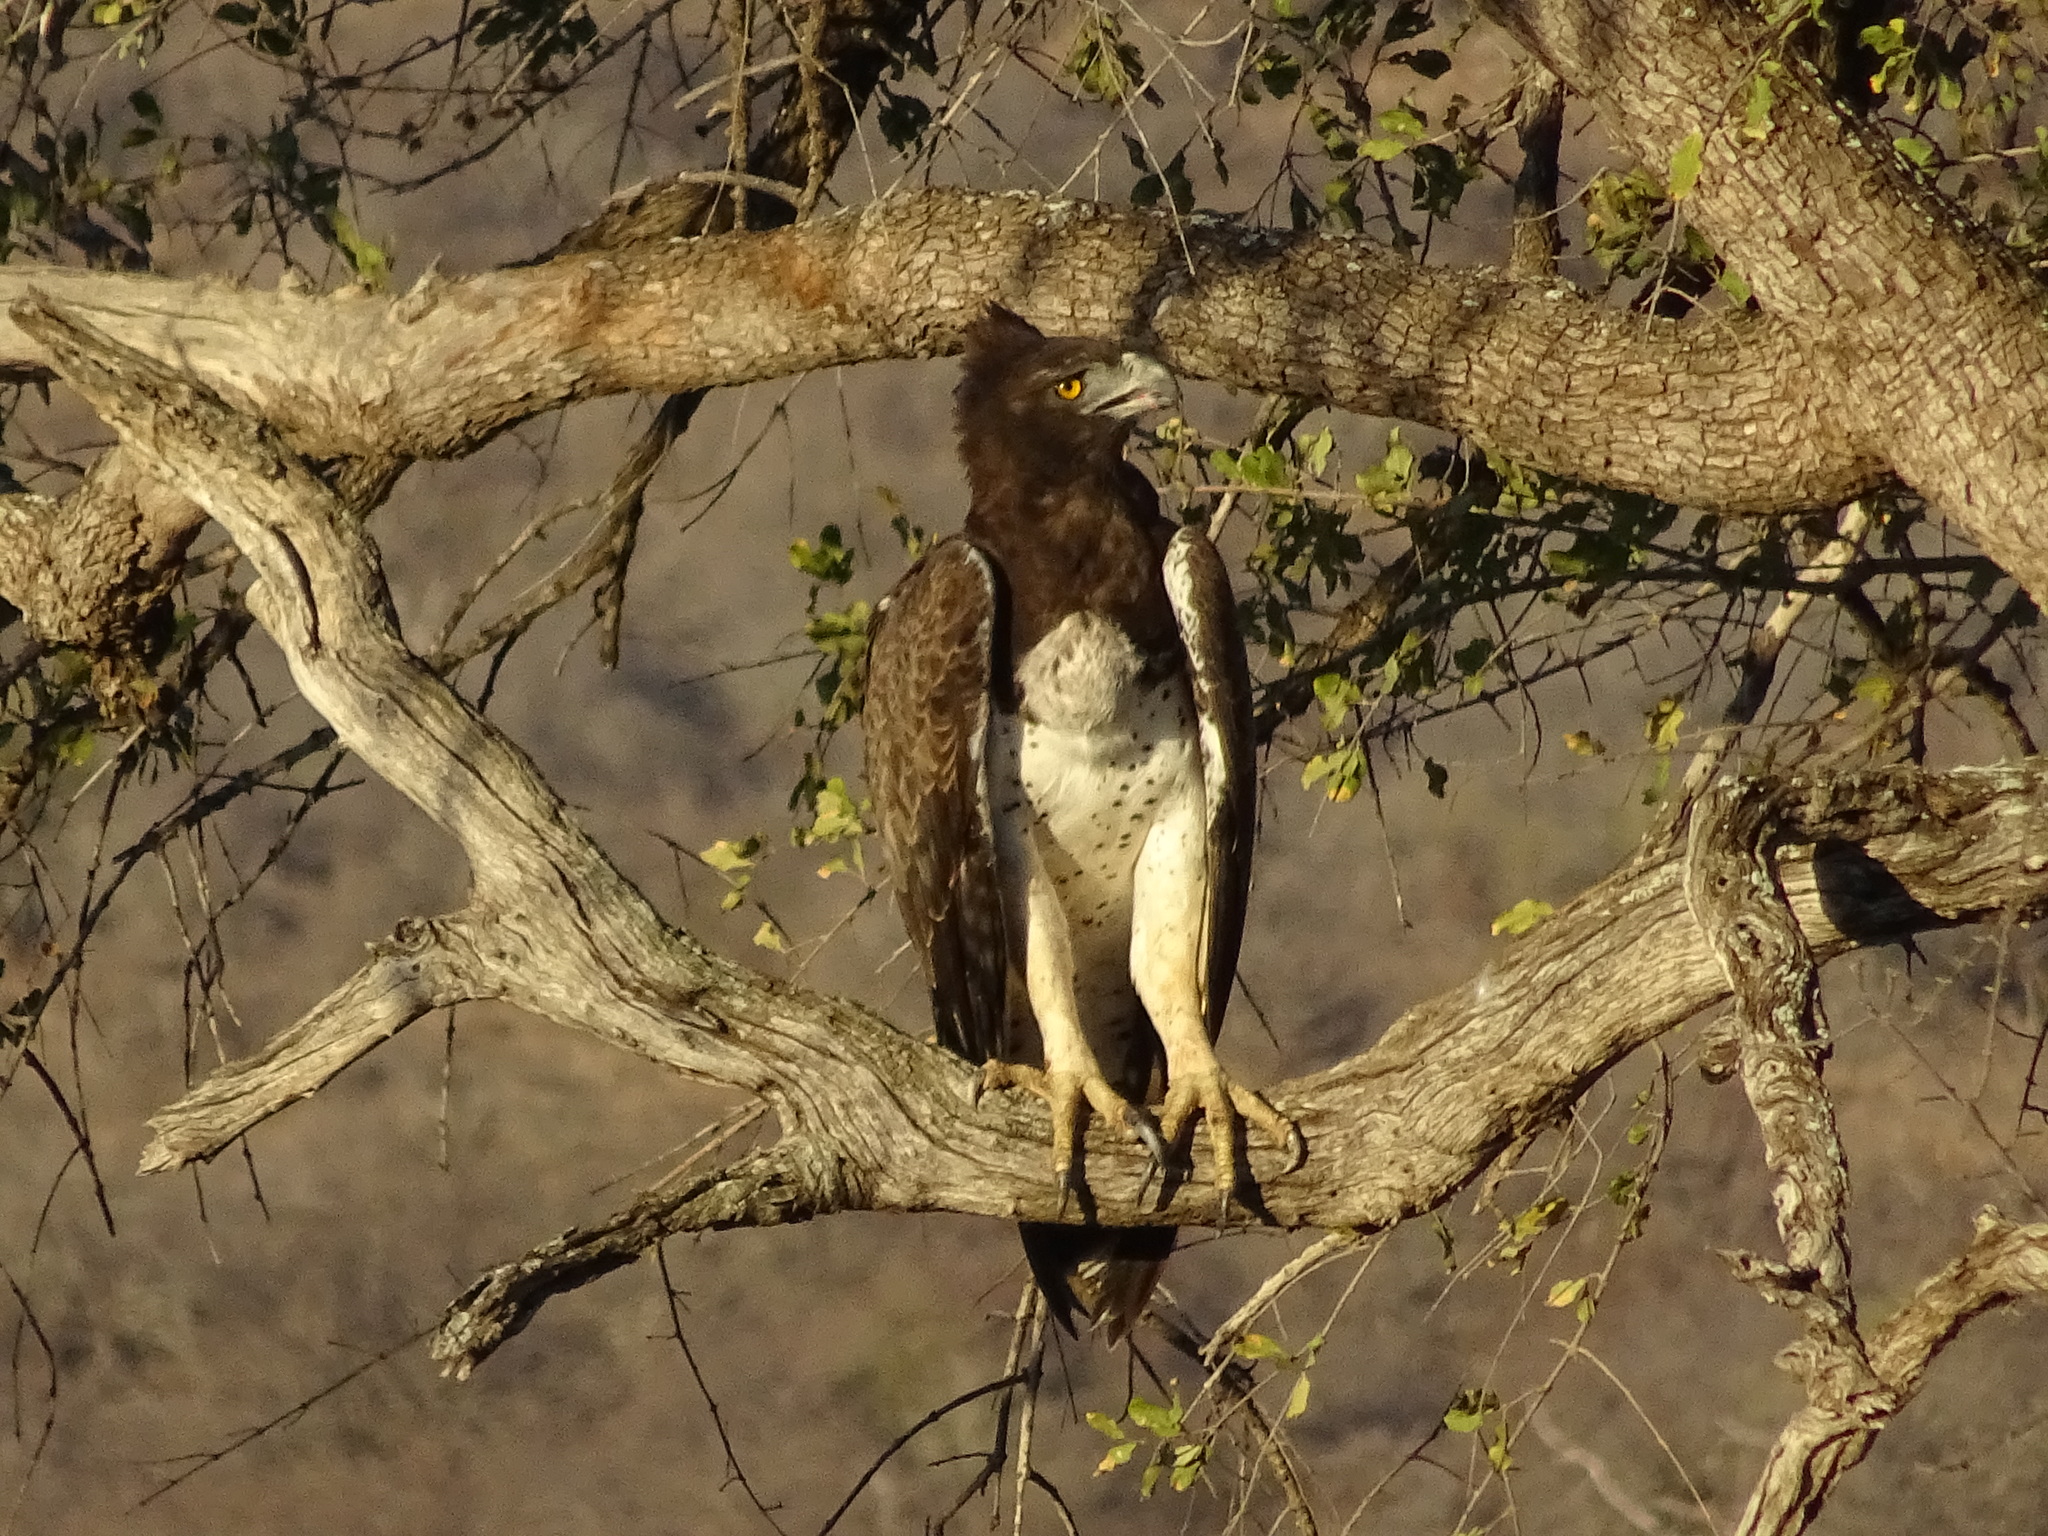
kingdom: Animalia
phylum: Chordata
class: Aves
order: Accipitriformes
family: Accipitridae
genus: Polemaetus
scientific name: Polemaetus bellicosus
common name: Martial eagle
